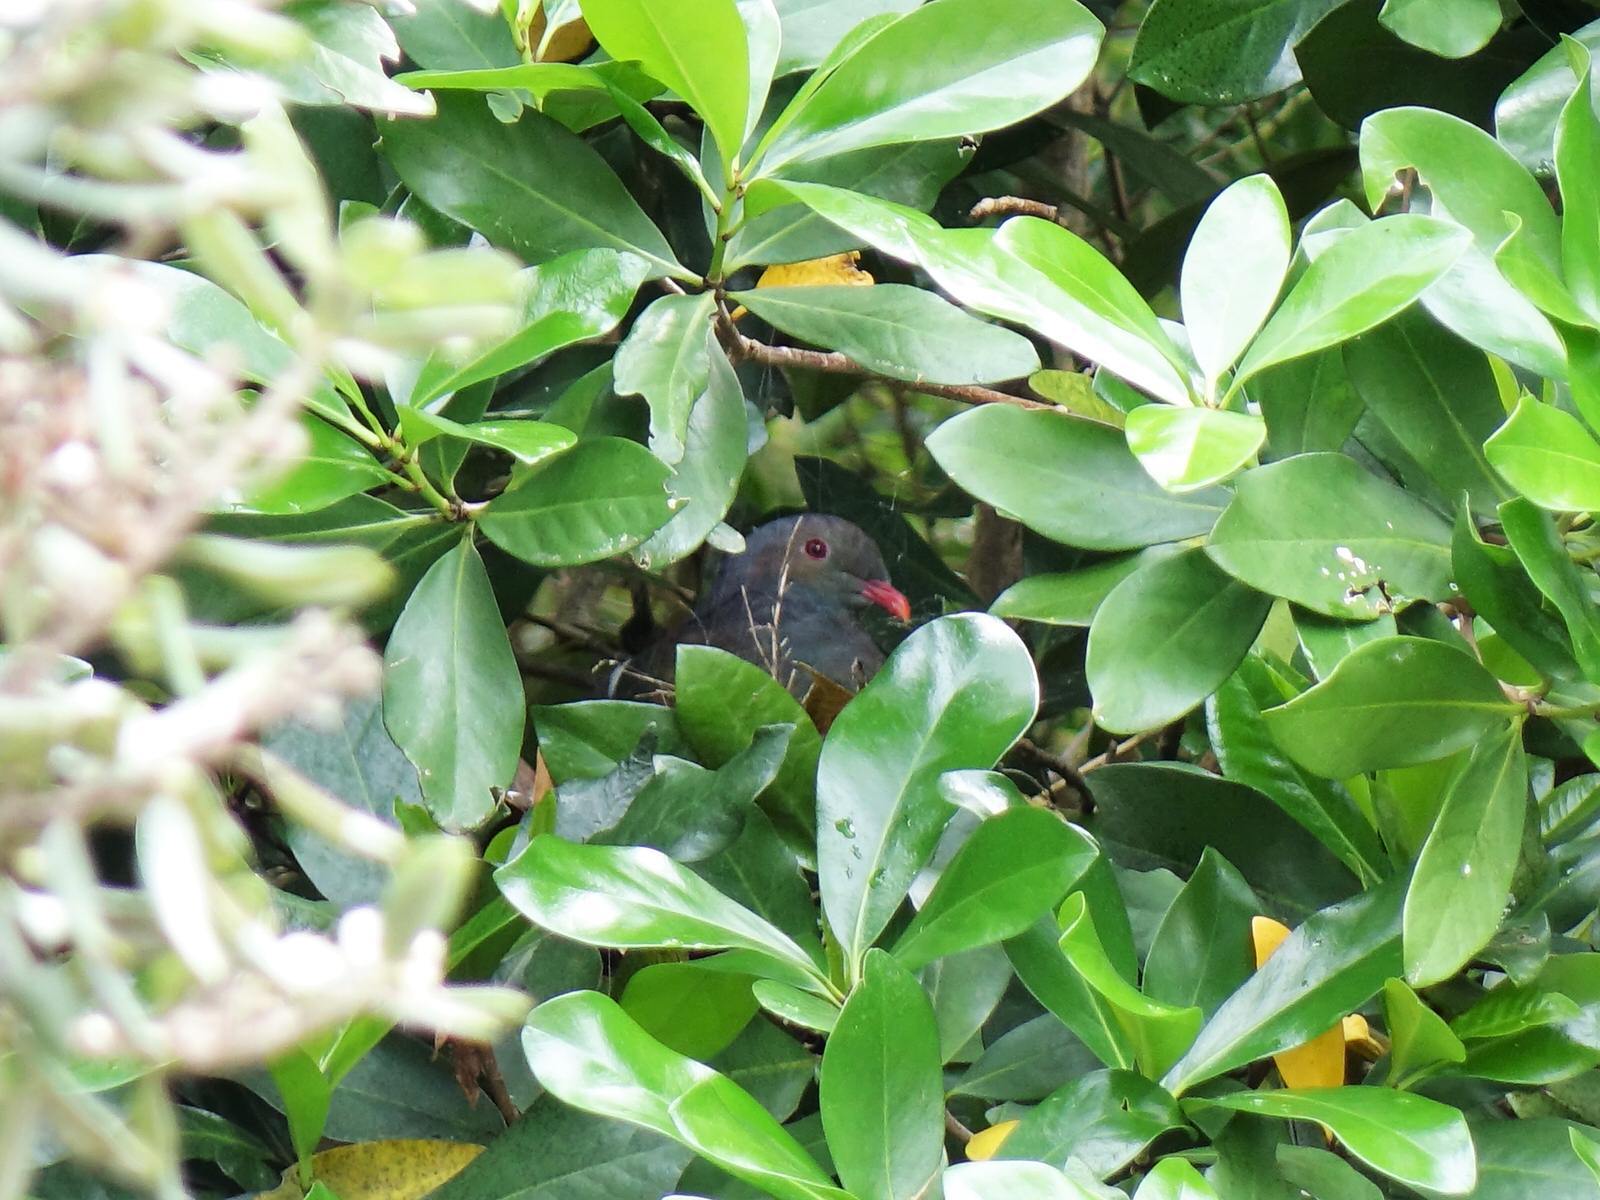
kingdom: Animalia
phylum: Chordata
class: Aves
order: Columbiformes
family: Columbidae
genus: Hemiphaga
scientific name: Hemiphaga novaeseelandiae
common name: New zealand pigeon
